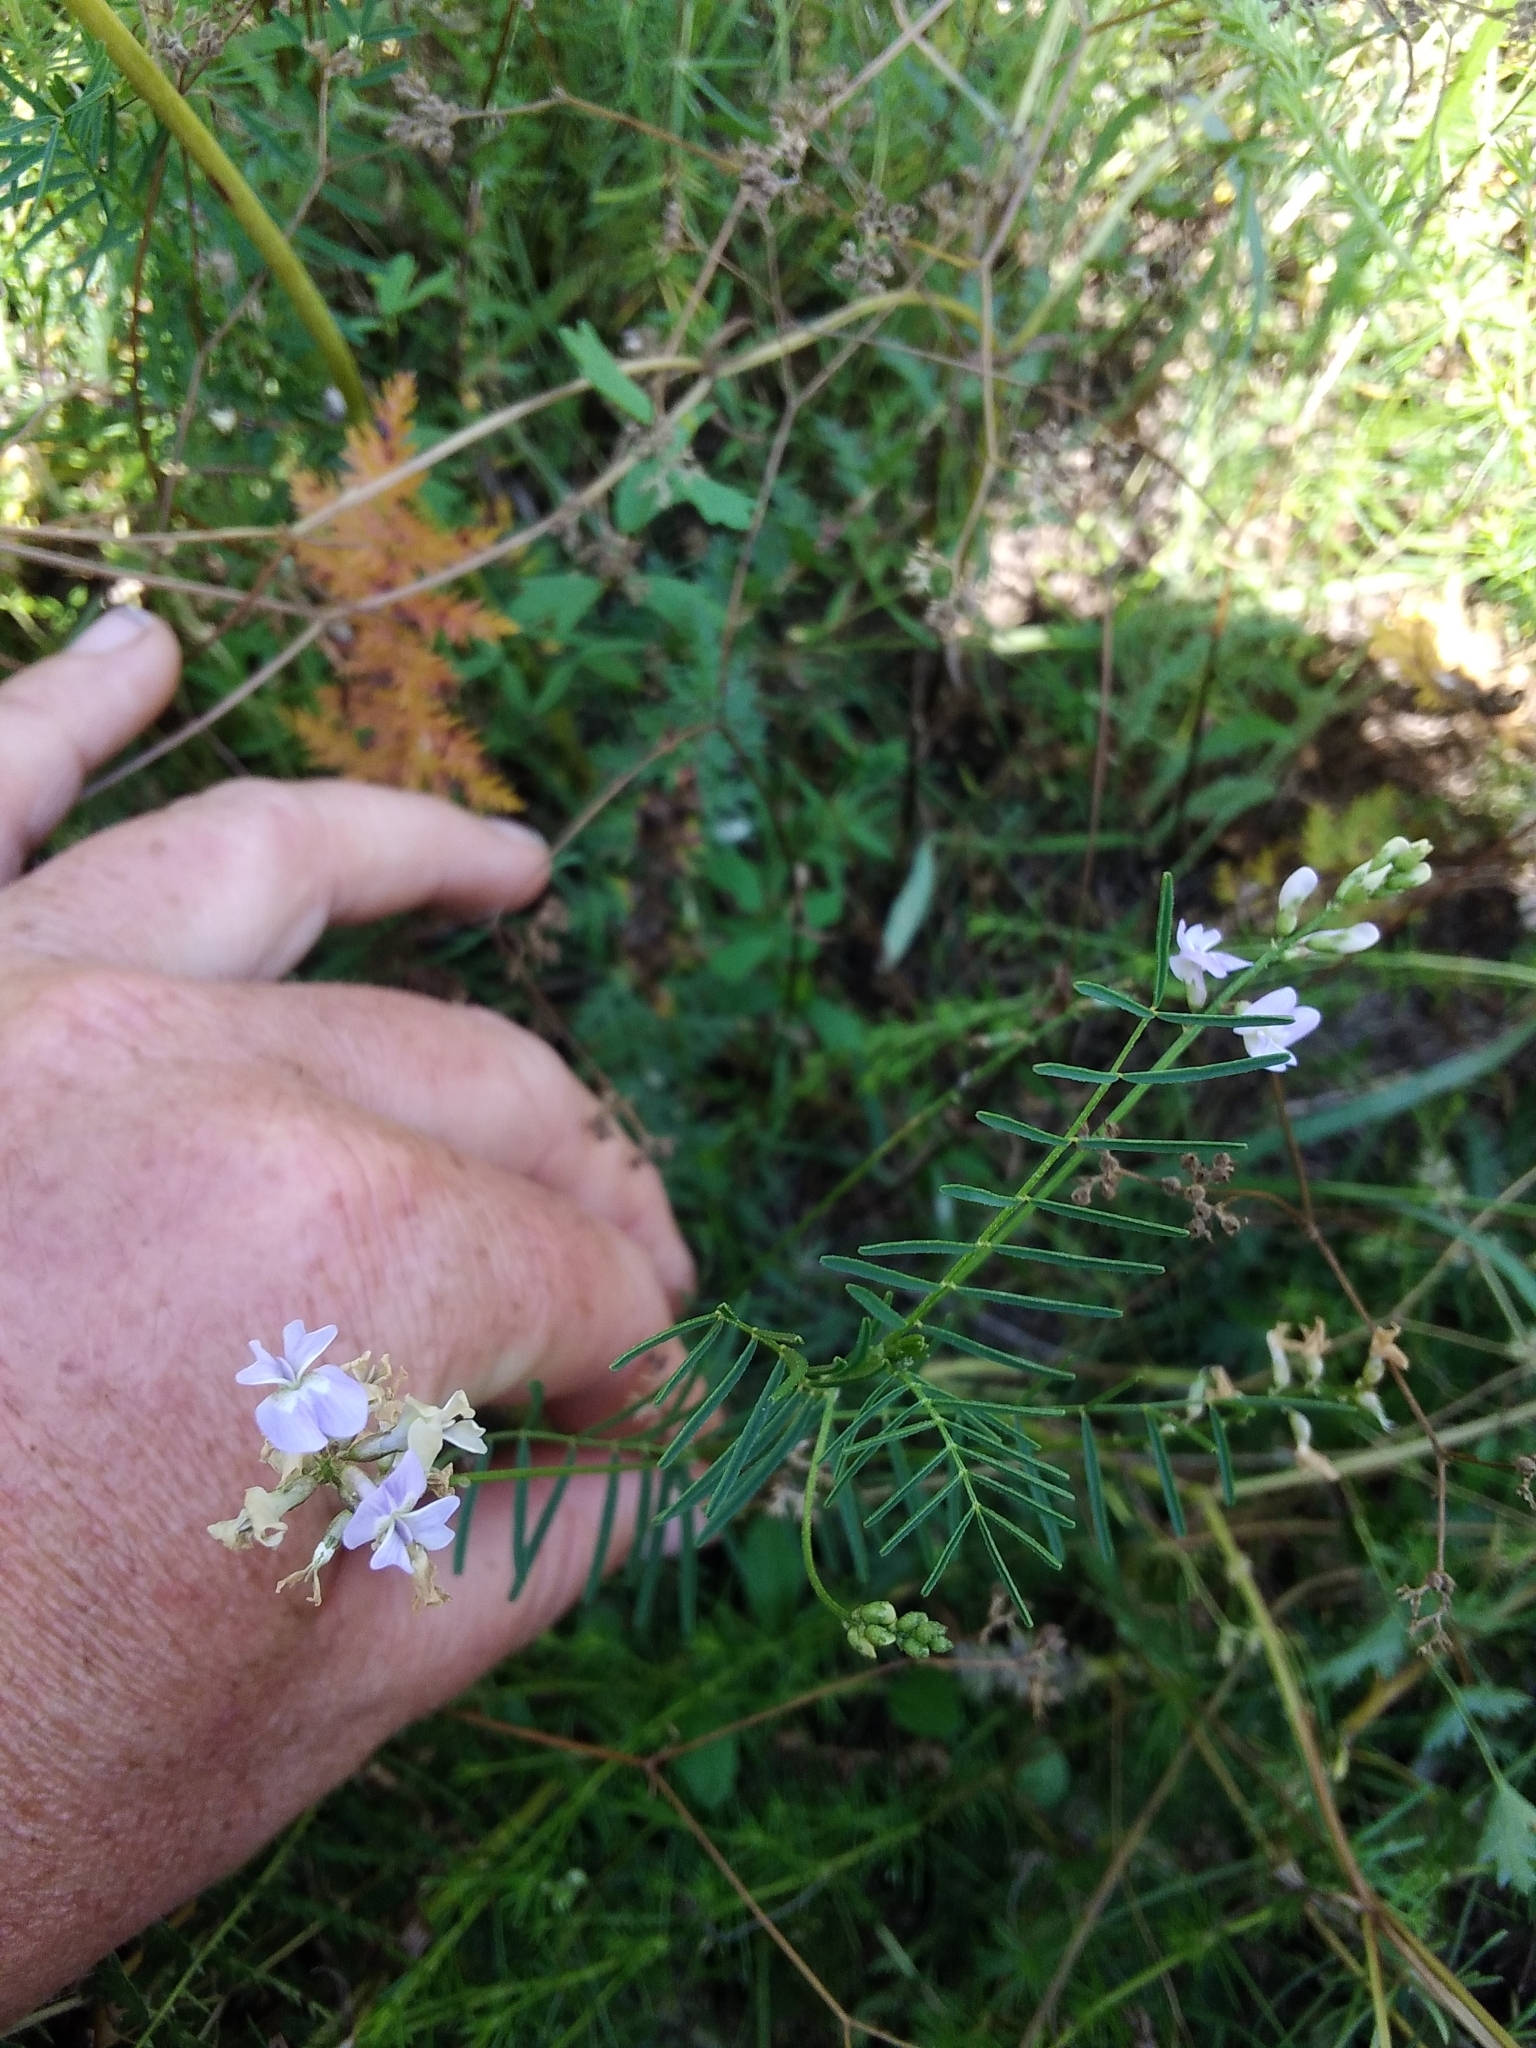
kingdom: Plantae
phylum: Tracheophyta
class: Magnoliopsida
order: Fabales
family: Fabaceae
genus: Astragalus
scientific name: Astragalus austriacus
